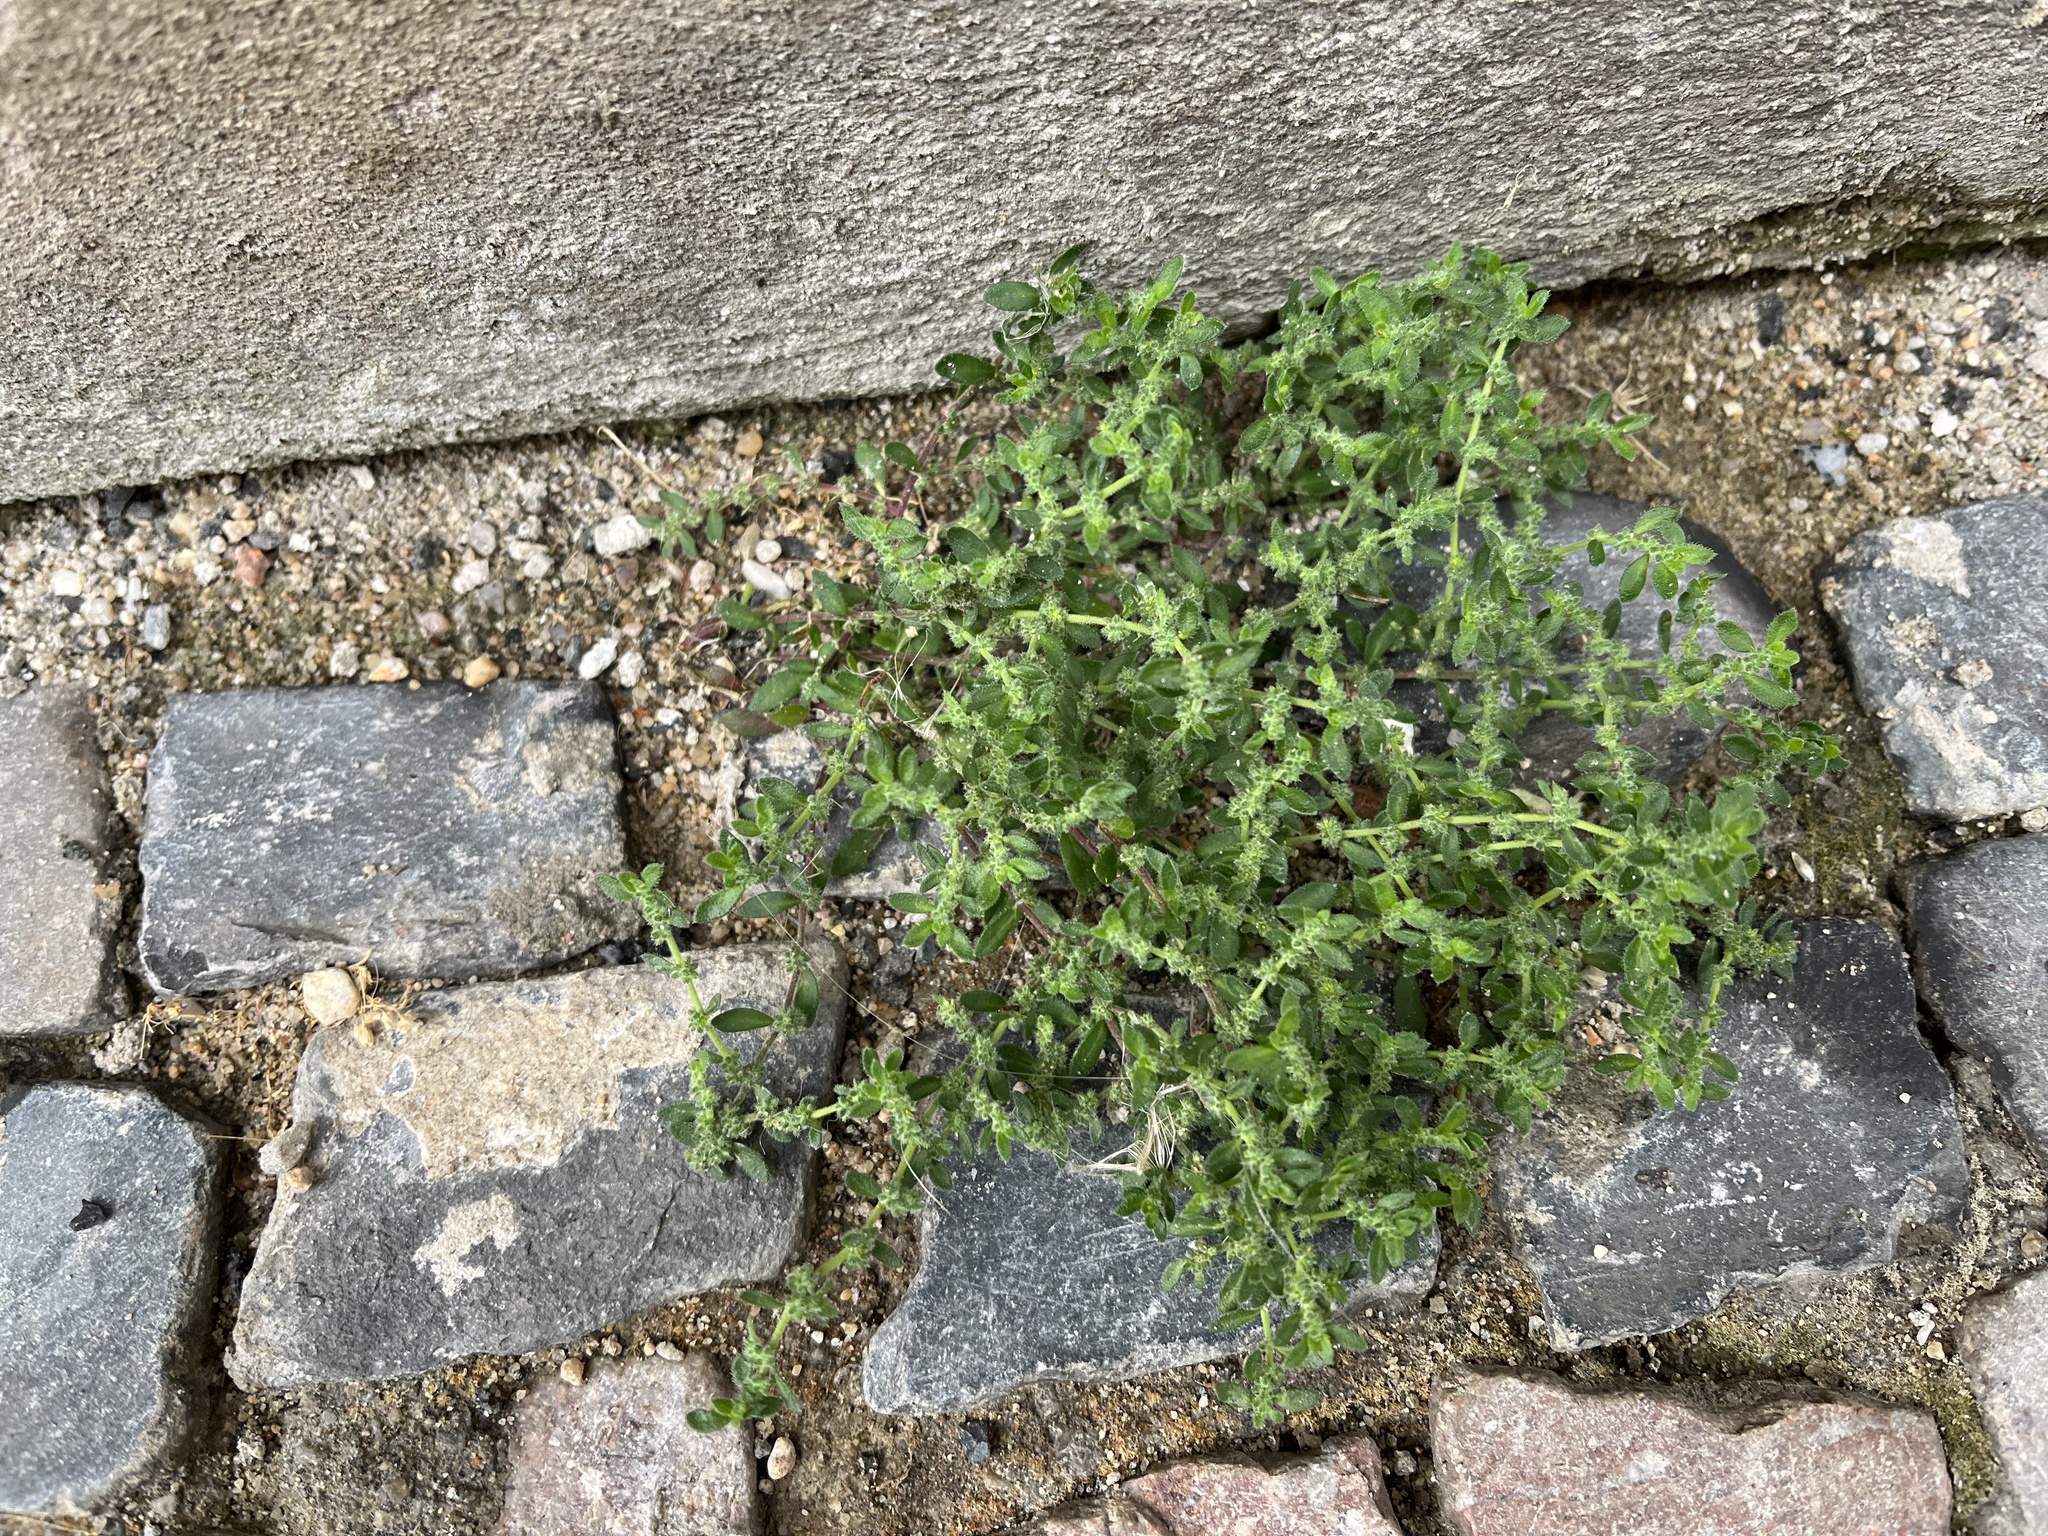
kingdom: Plantae
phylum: Tracheophyta
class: Magnoliopsida
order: Caryophyllales
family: Caryophyllaceae
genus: Herniaria
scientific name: Herniaria hirsuta
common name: Hairy rupturewort
